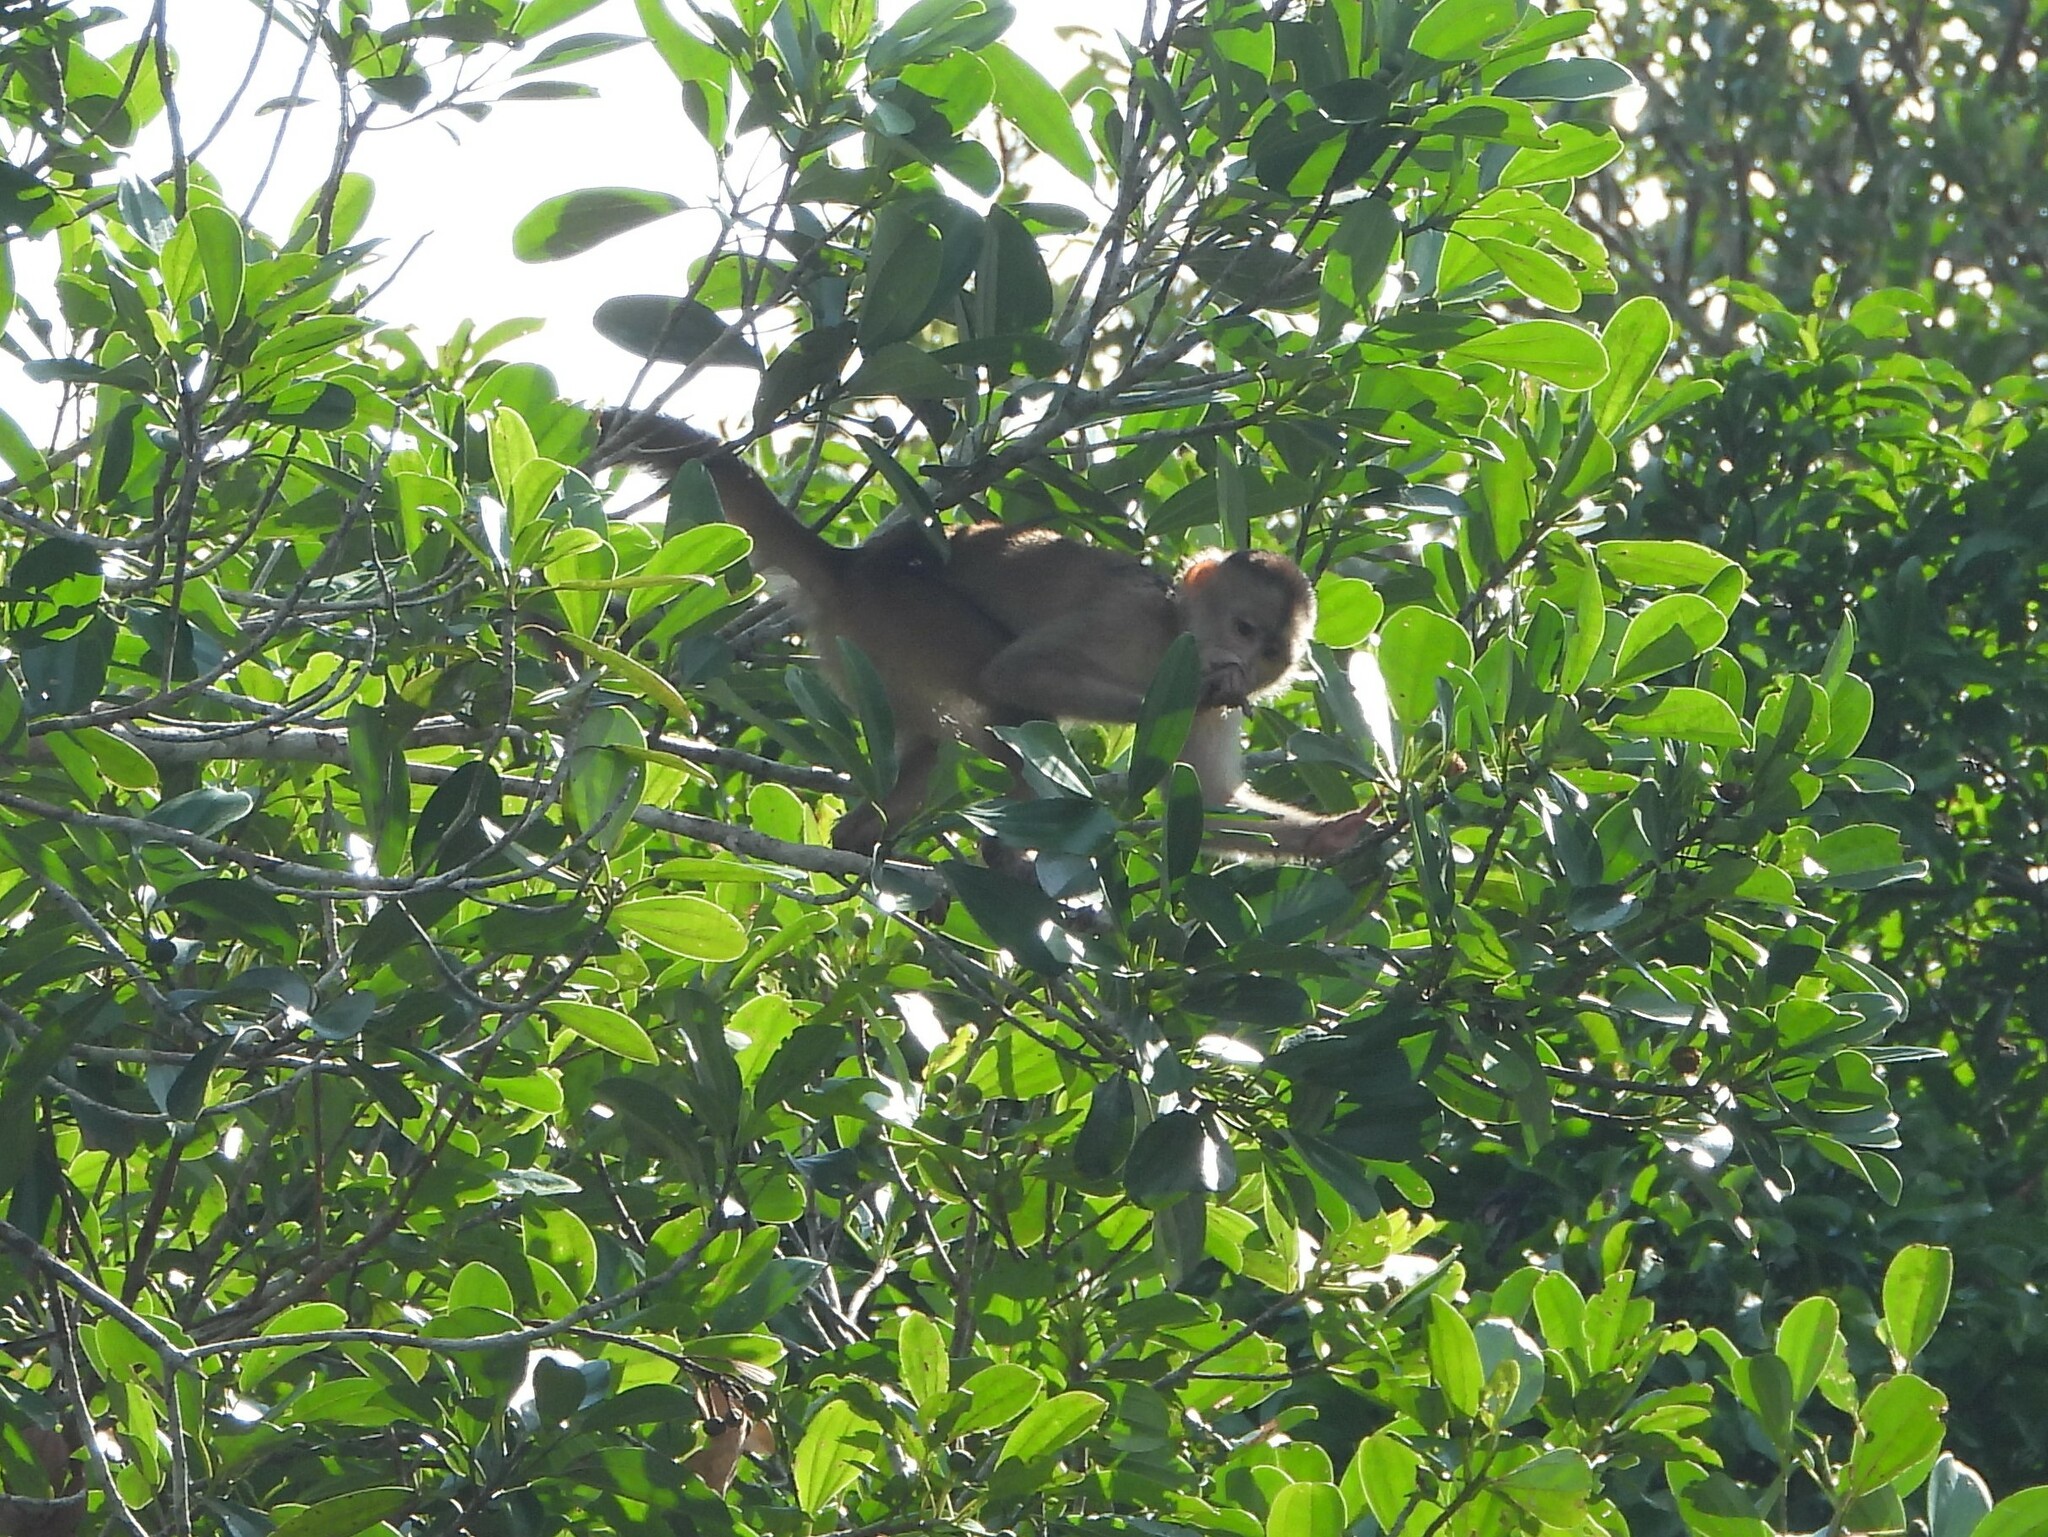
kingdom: Animalia
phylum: Chordata
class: Mammalia
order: Primates
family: Cebidae
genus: Cebus
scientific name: Cebus yuracus
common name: Peruvian white-fronted capuchin
